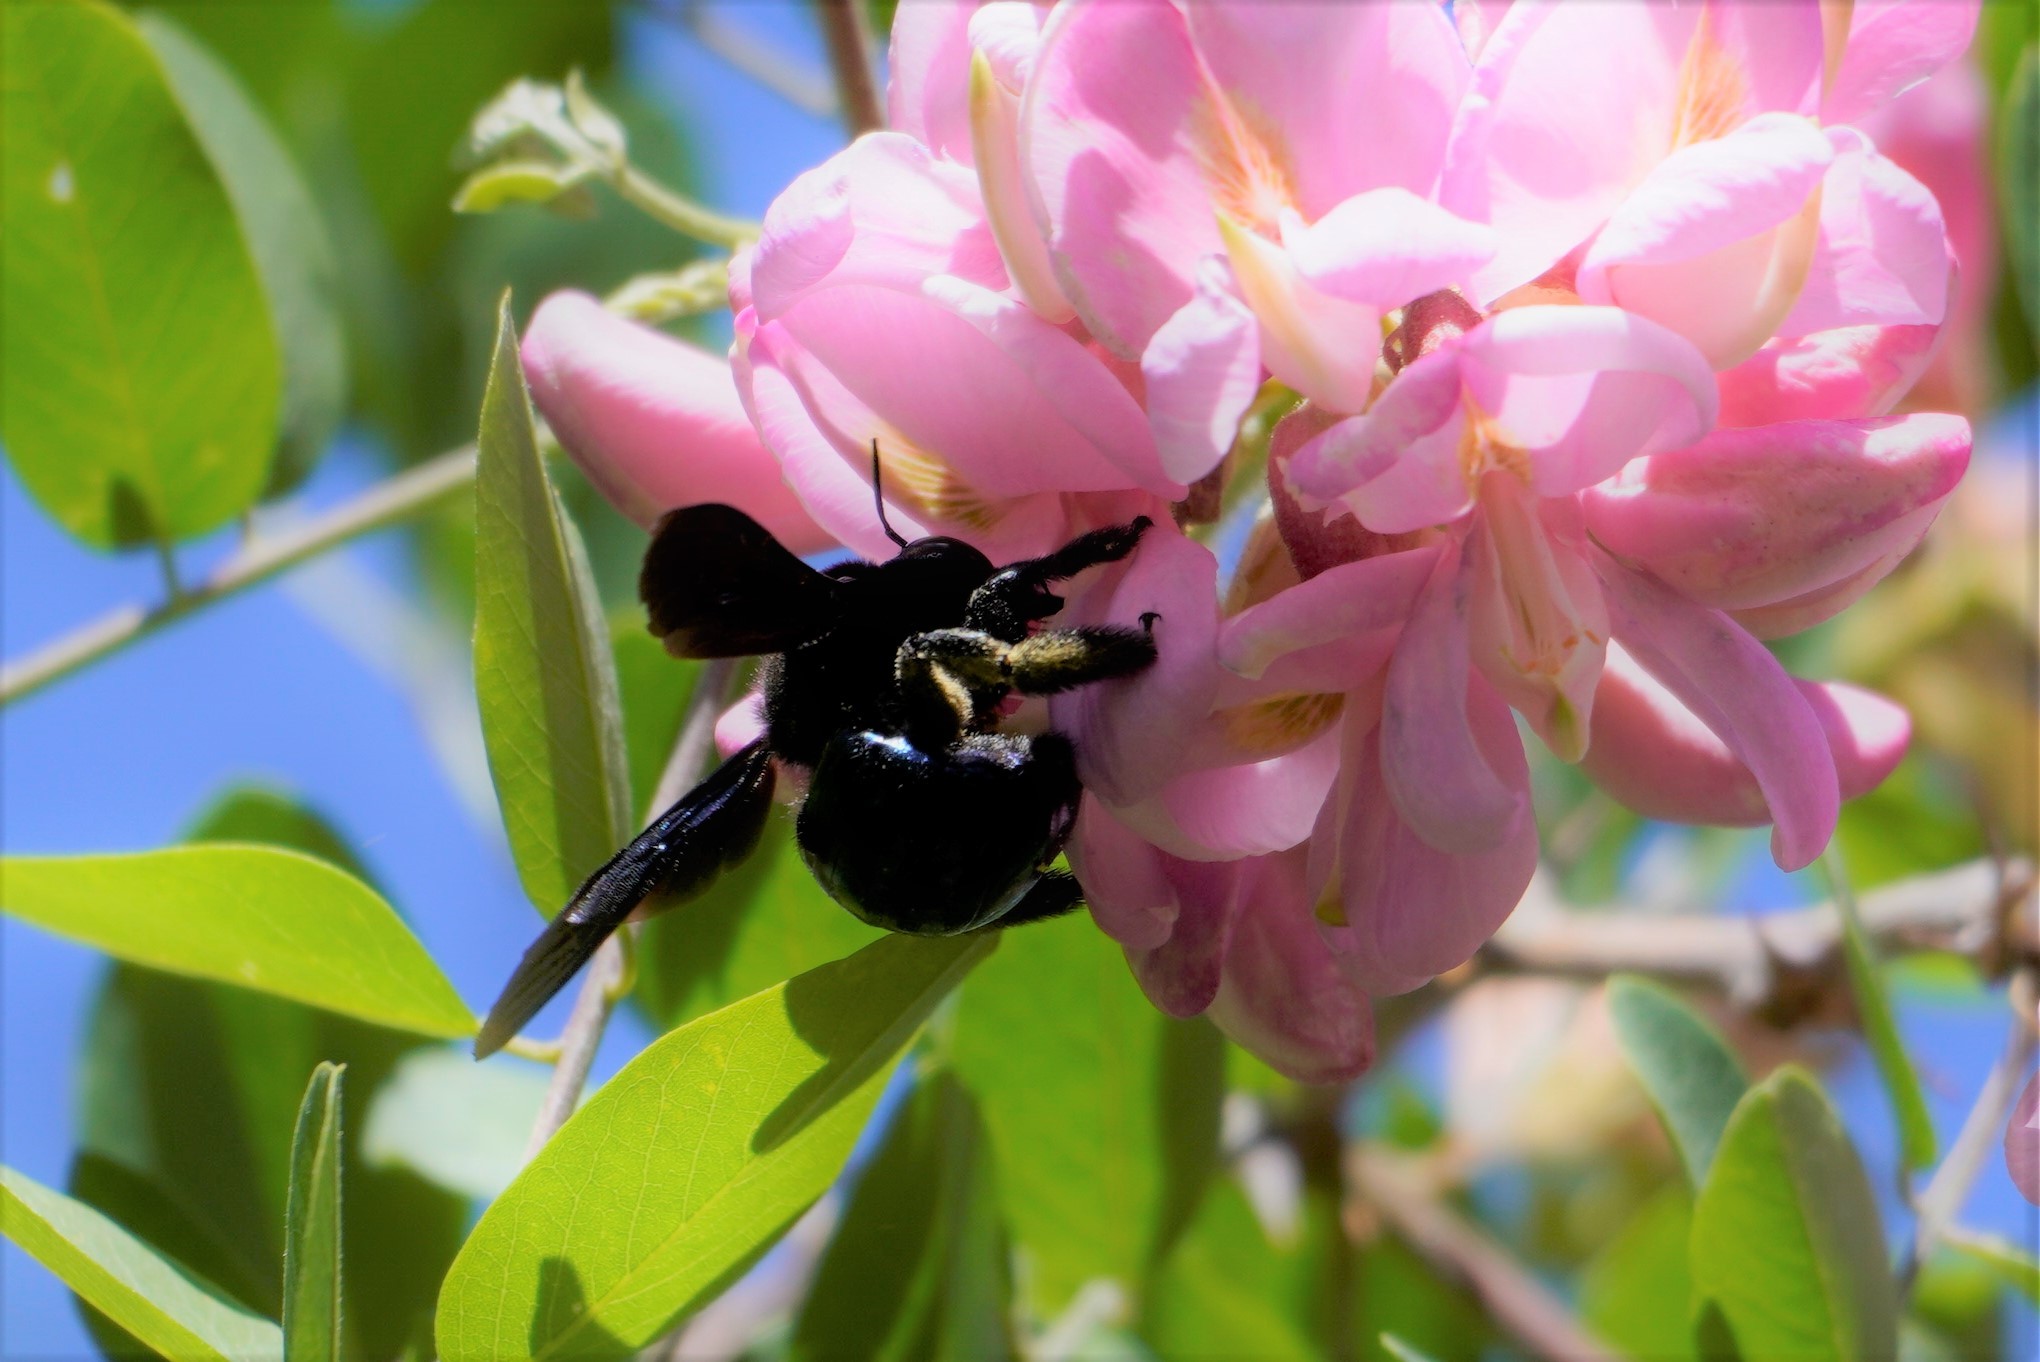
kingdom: Animalia
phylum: Arthropoda
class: Insecta
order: Hymenoptera
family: Apidae
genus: Xylocopa
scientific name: Xylocopa californica
